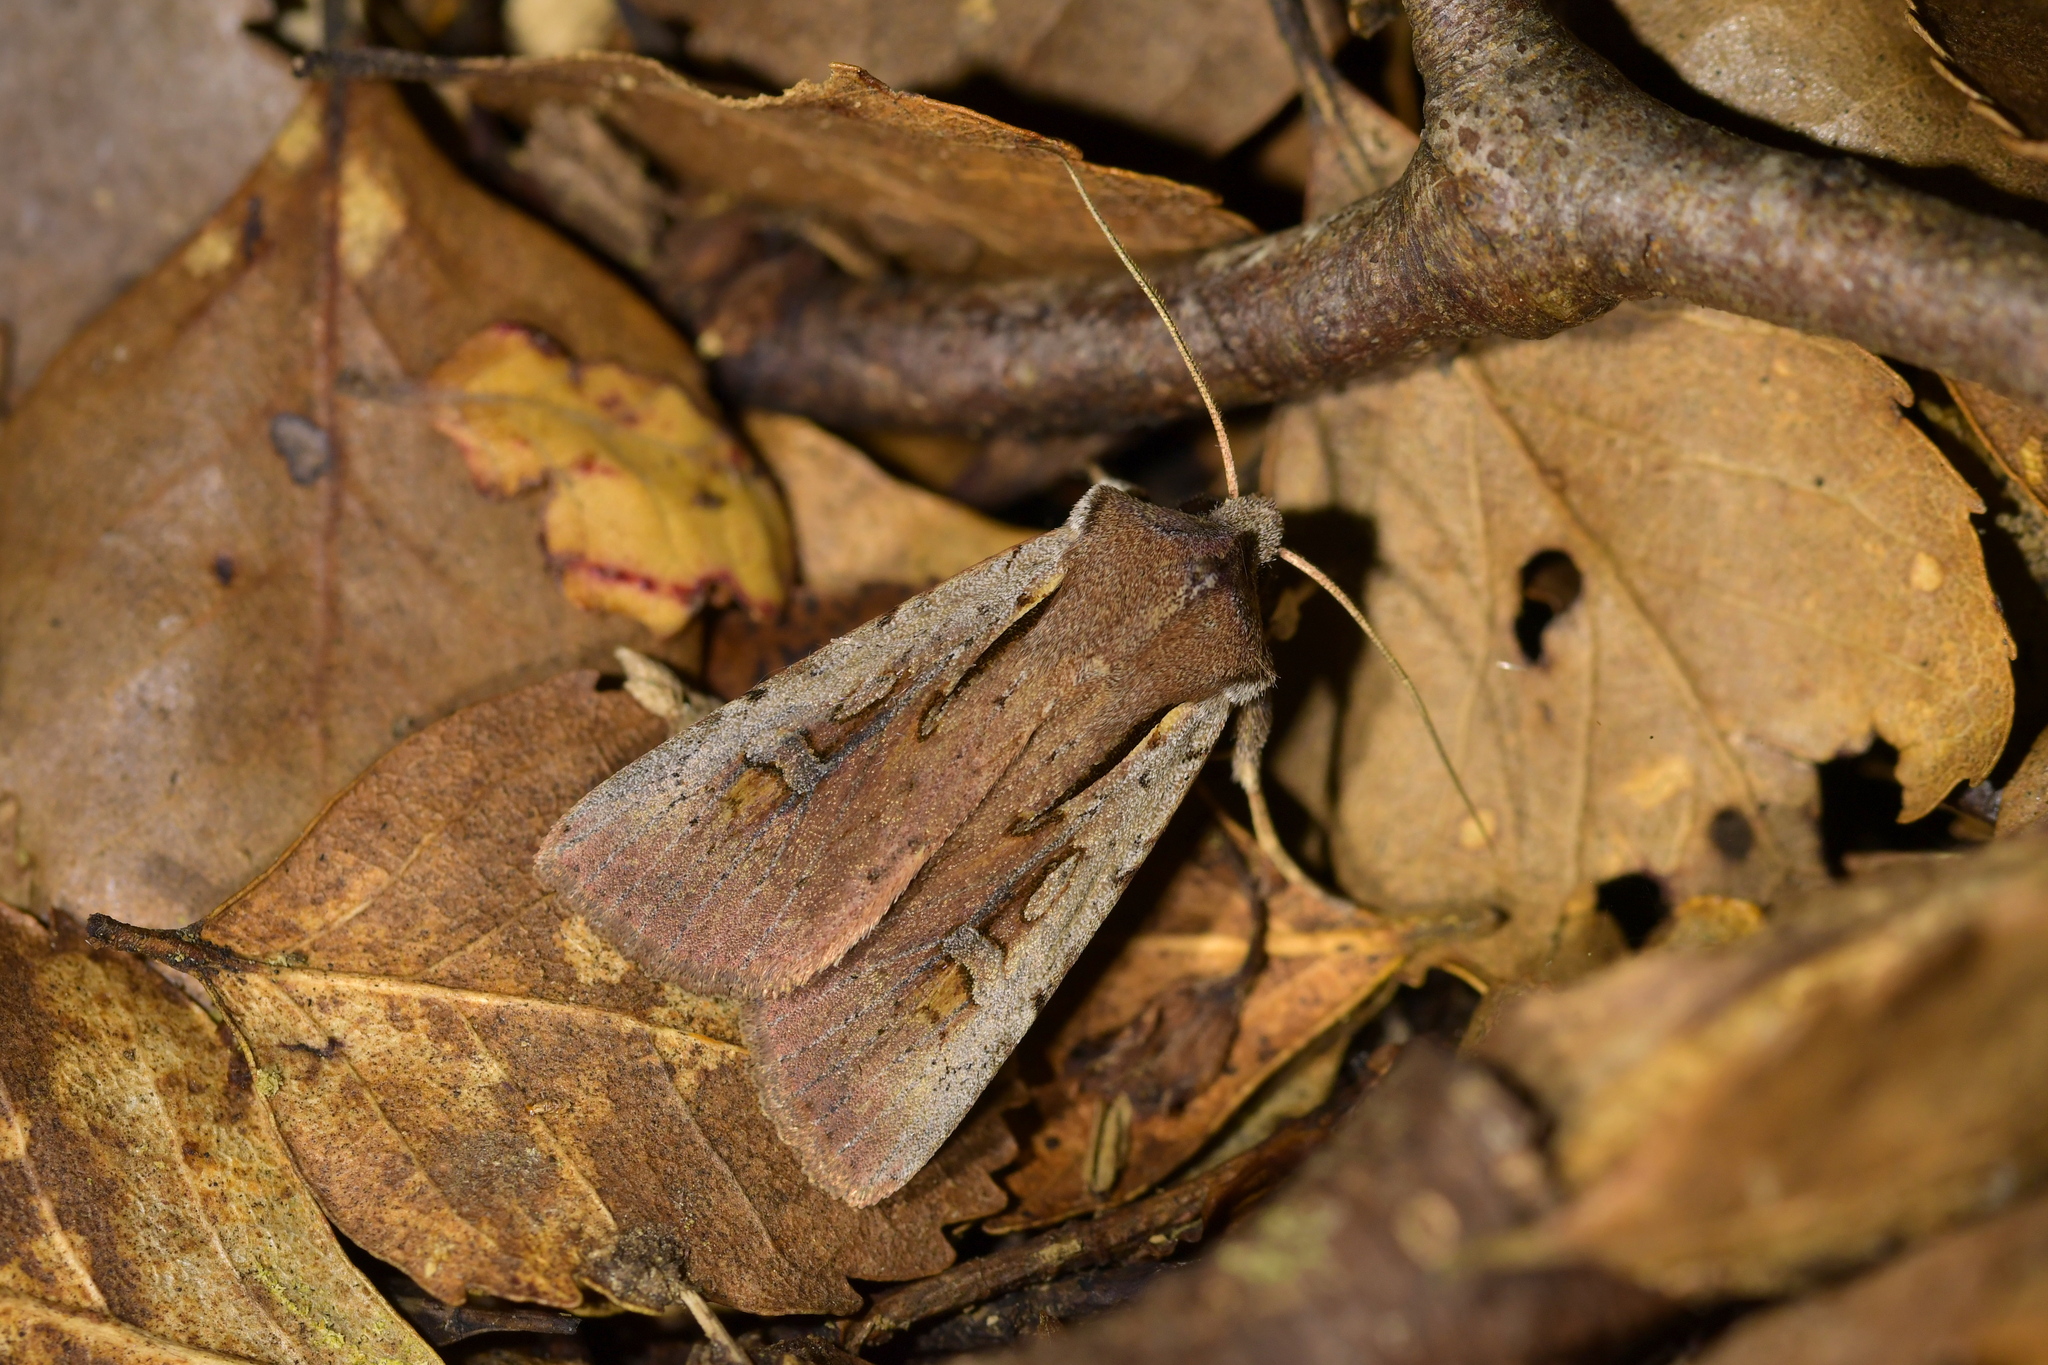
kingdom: Animalia
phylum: Arthropoda
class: Insecta
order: Lepidoptera
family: Noctuidae
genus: Ichneutica
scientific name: Ichneutica atristriga
